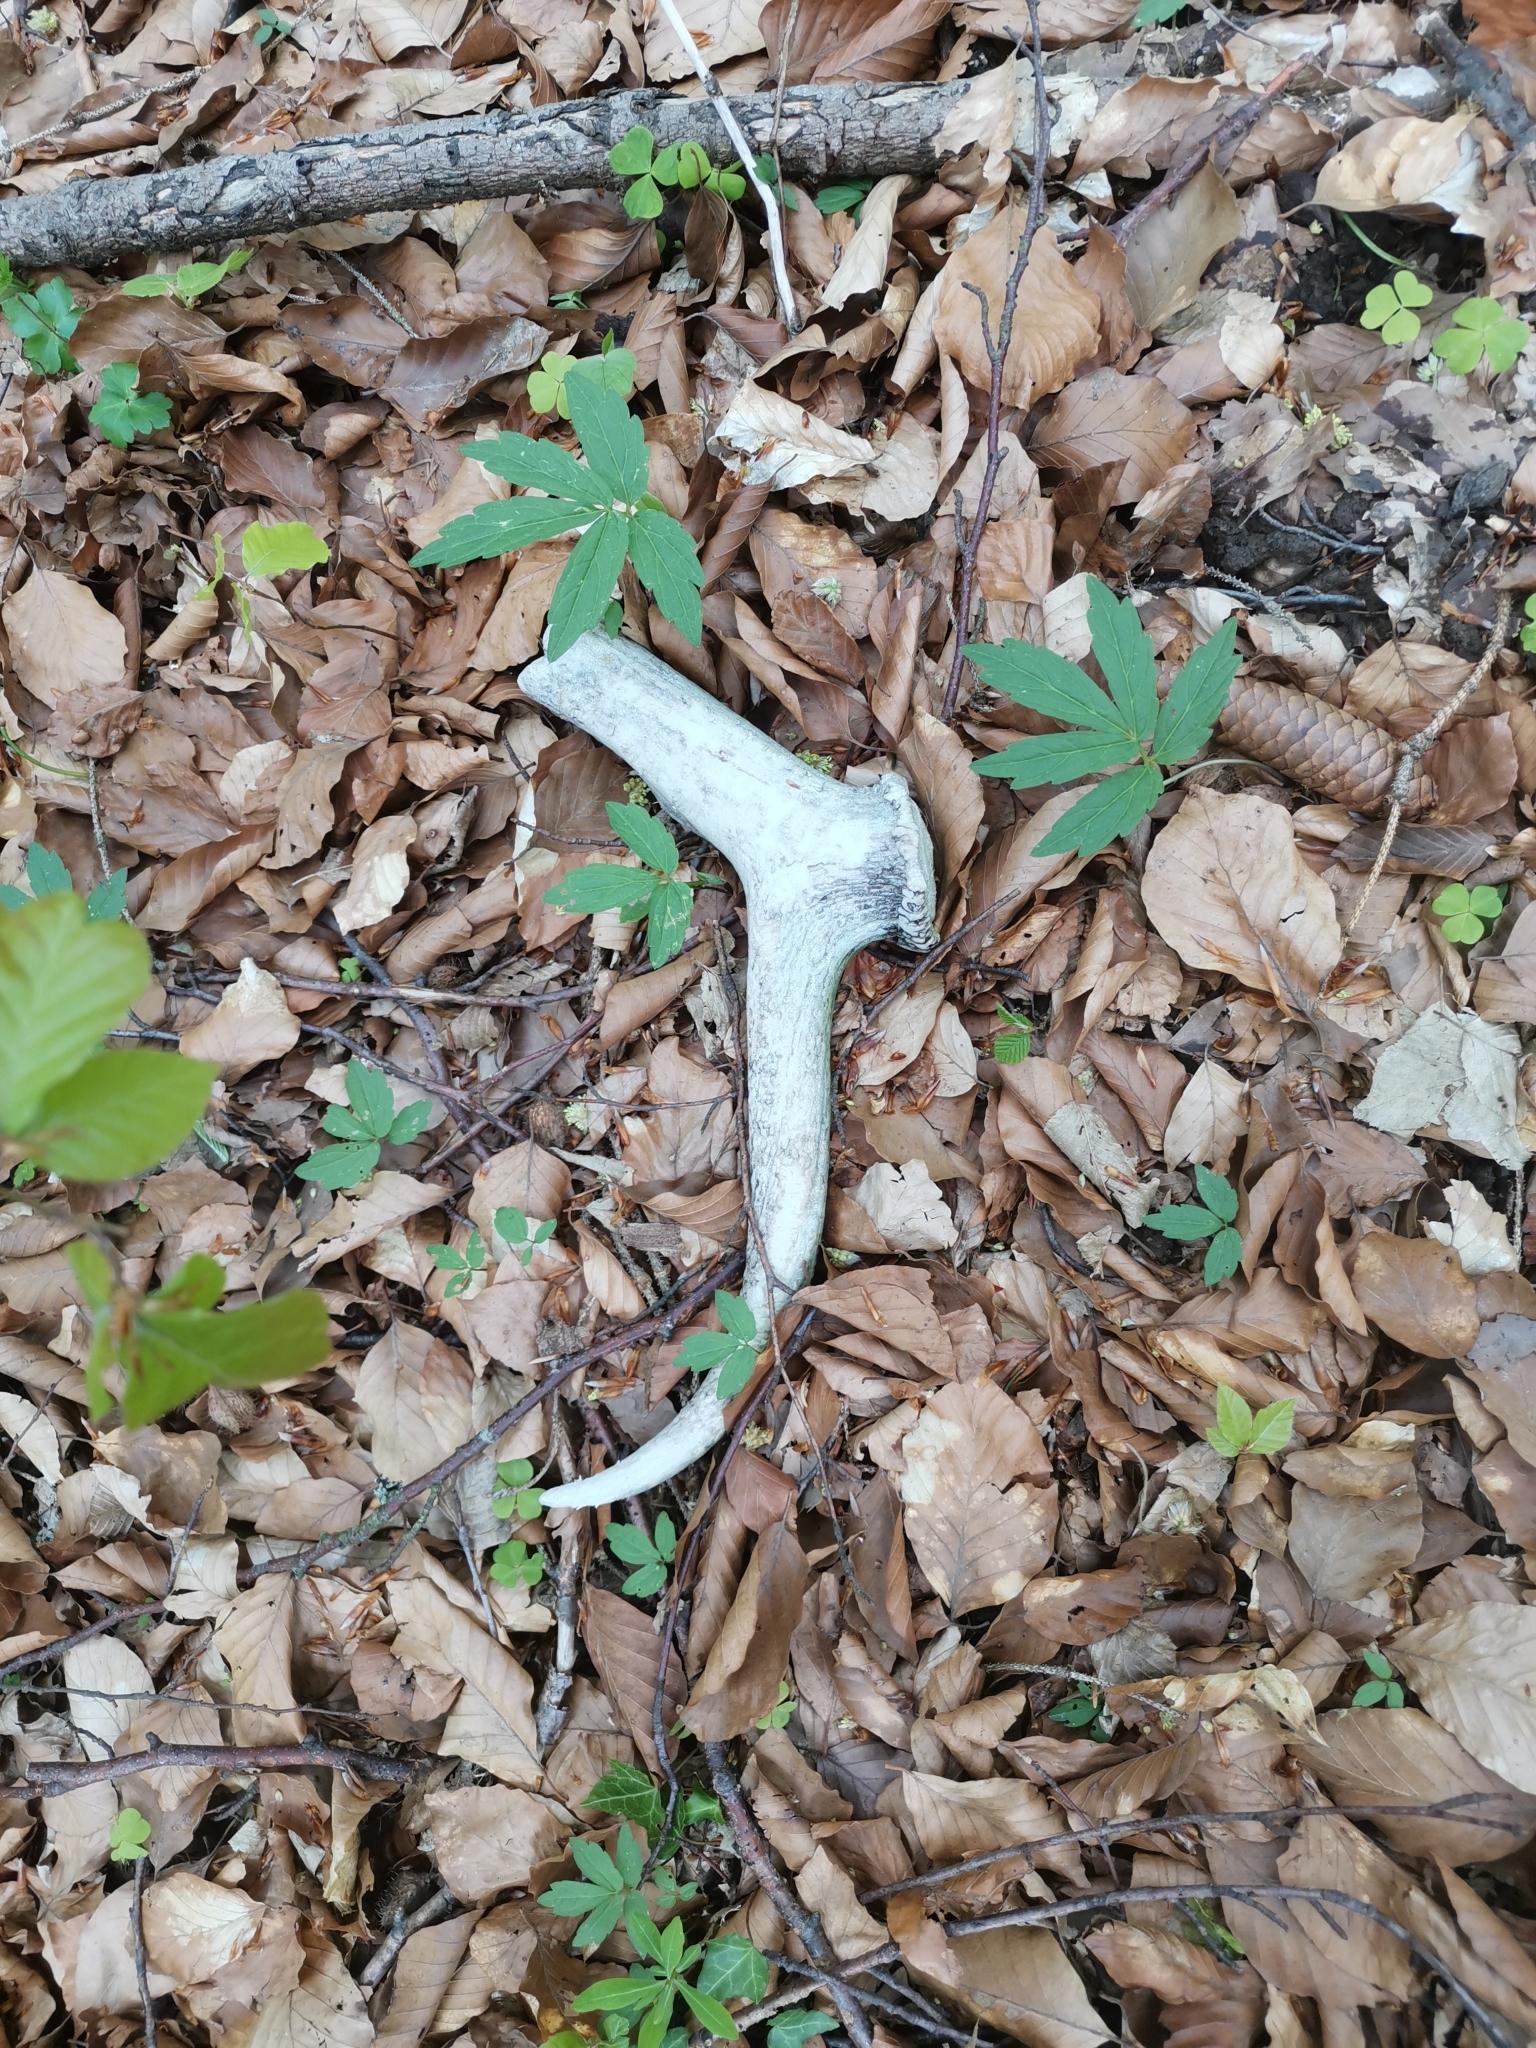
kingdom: Animalia
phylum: Chordata
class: Mammalia
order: Artiodactyla
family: Cervidae
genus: Cervus
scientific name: Cervus elaphus
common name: Red deer
